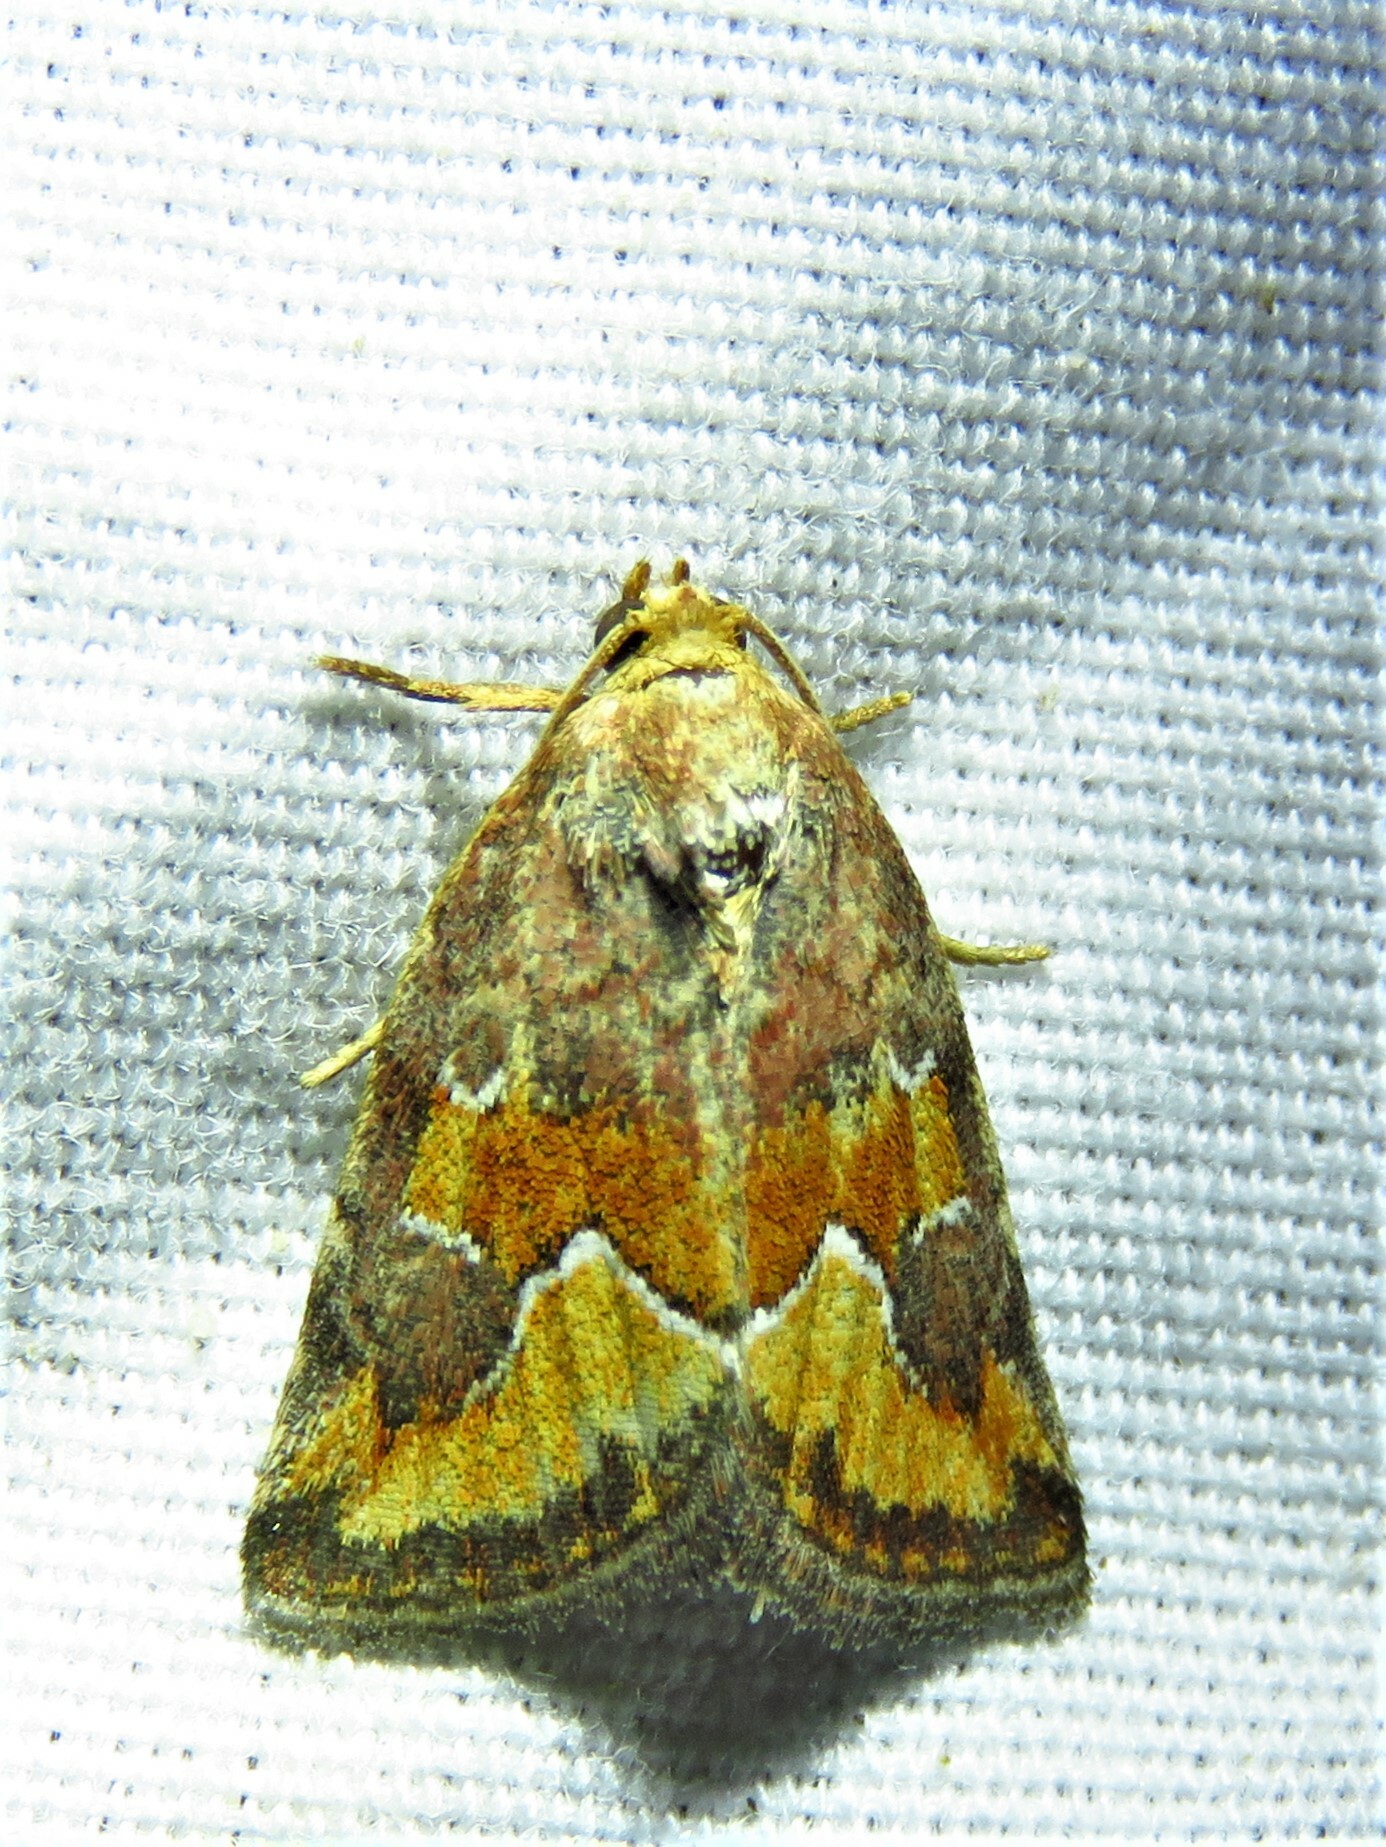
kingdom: Animalia
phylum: Arthropoda
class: Insecta
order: Lepidoptera
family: Noctuidae
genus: Deltote
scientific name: Deltote bellicula
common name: Bog glyph
